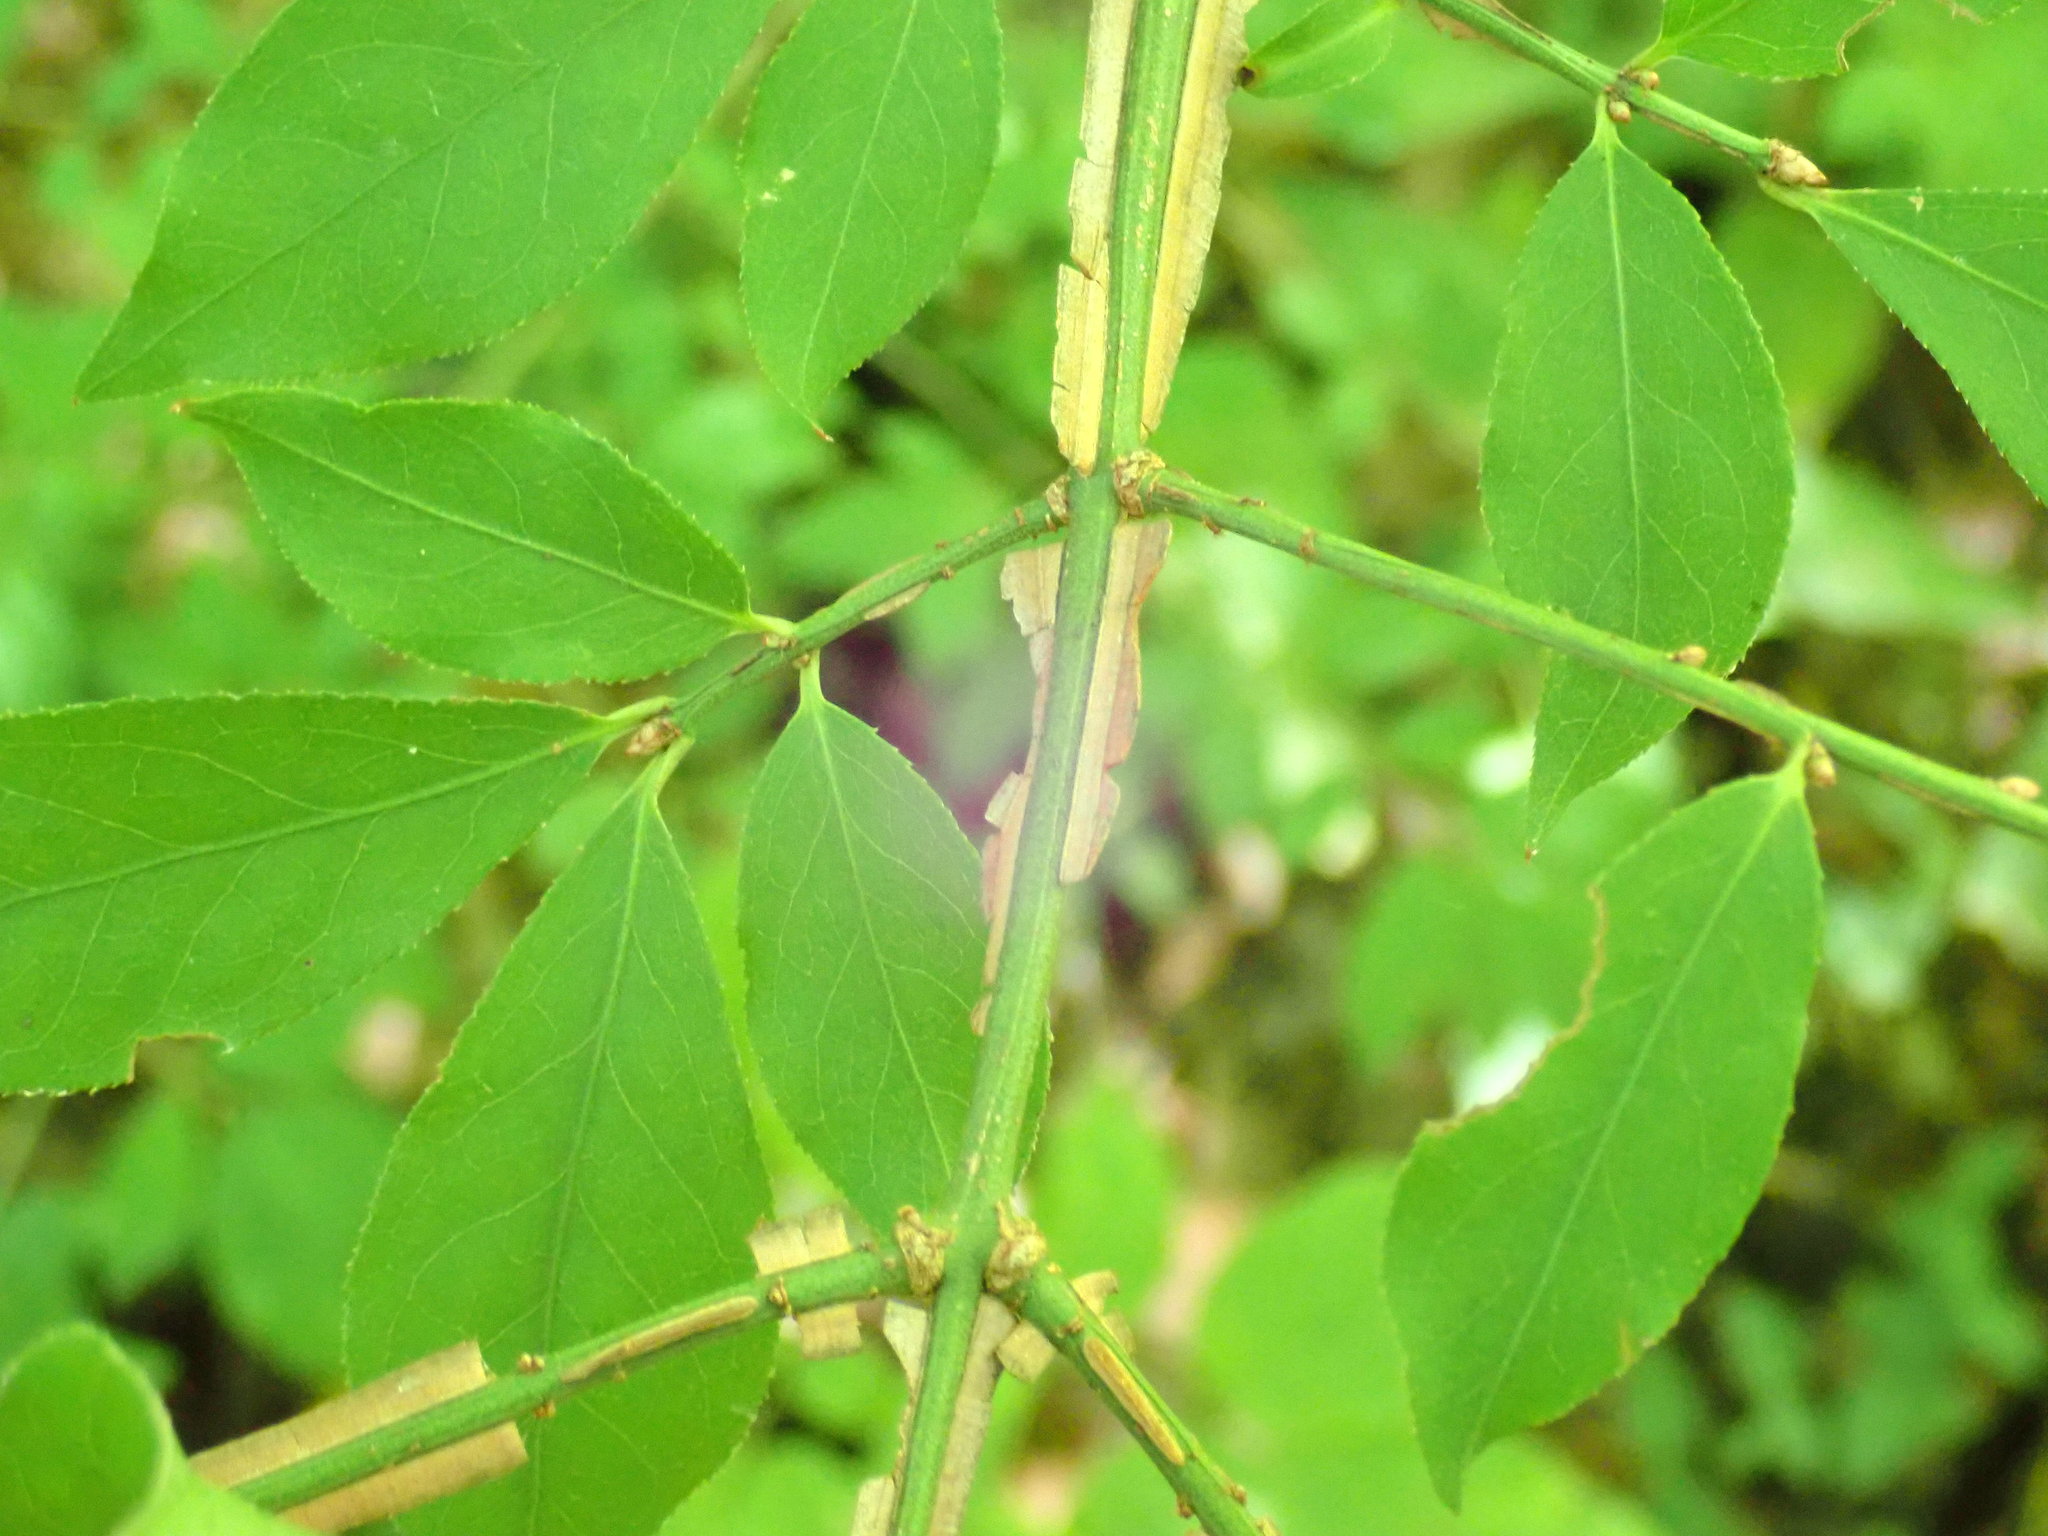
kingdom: Plantae
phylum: Tracheophyta
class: Magnoliopsida
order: Celastrales
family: Celastraceae
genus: Euonymus
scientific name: Euonymus alatus
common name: Winged euonymus
